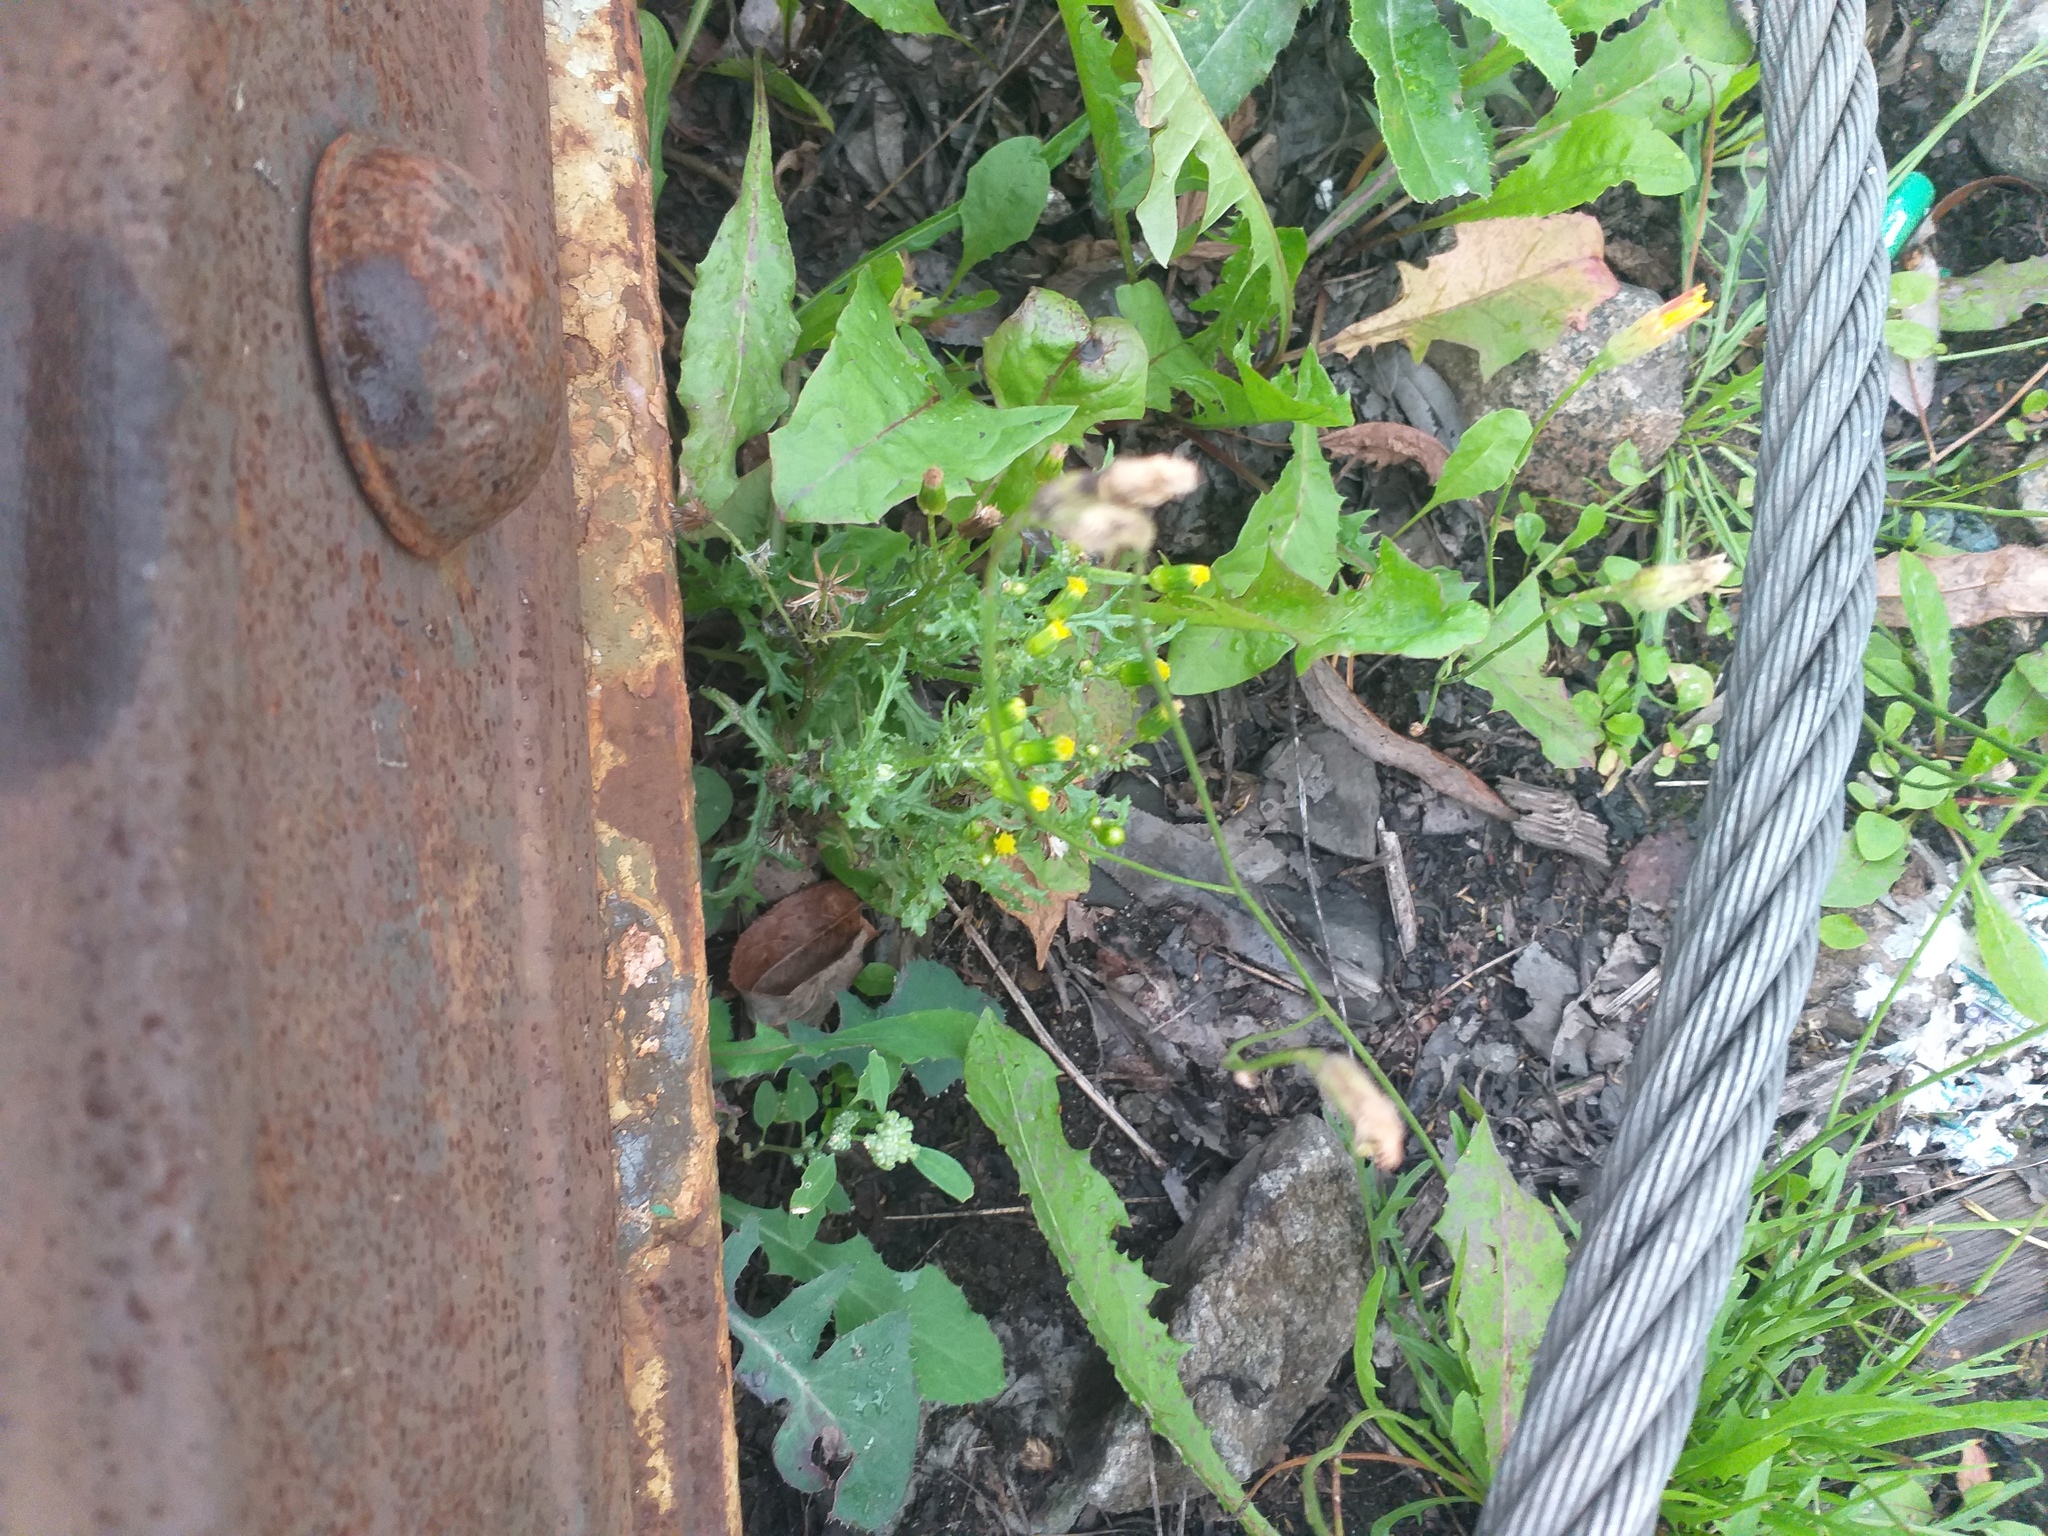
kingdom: Plantae
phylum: Tracheophyta
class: Magnoliopsida
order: Asterales
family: Asteraceae
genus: Senecio
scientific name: Senecio vulgaris
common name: Old-man-in-the-spring
